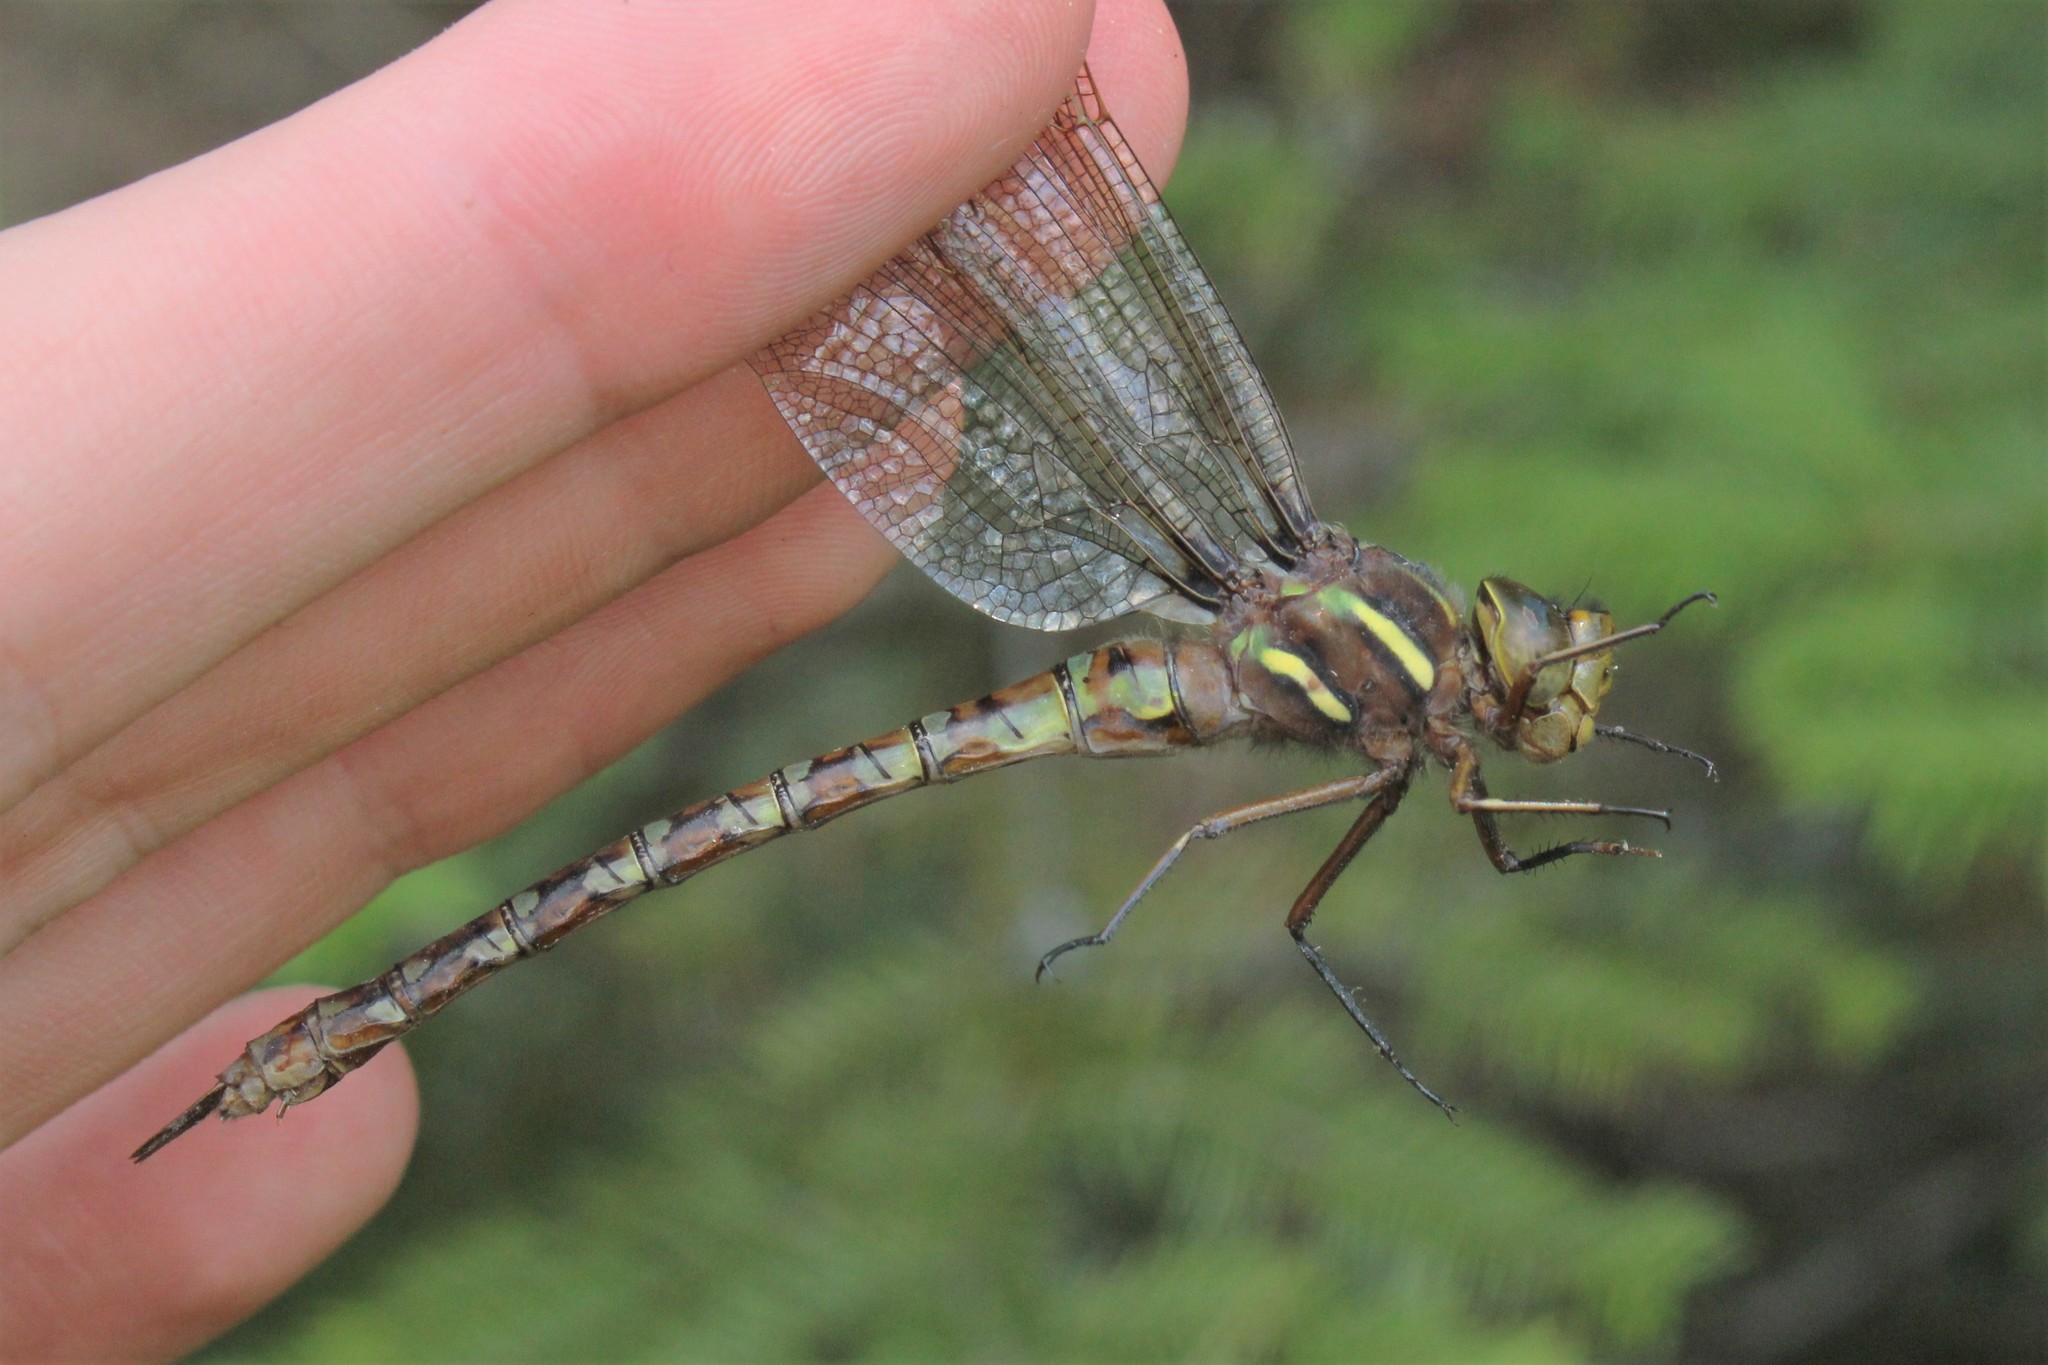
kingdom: Animalia
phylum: Arthropoda
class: Insecta
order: Odonata
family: Aeshnidae
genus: Basiaeschna
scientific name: Basiaeschna janata
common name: Springtime darner
